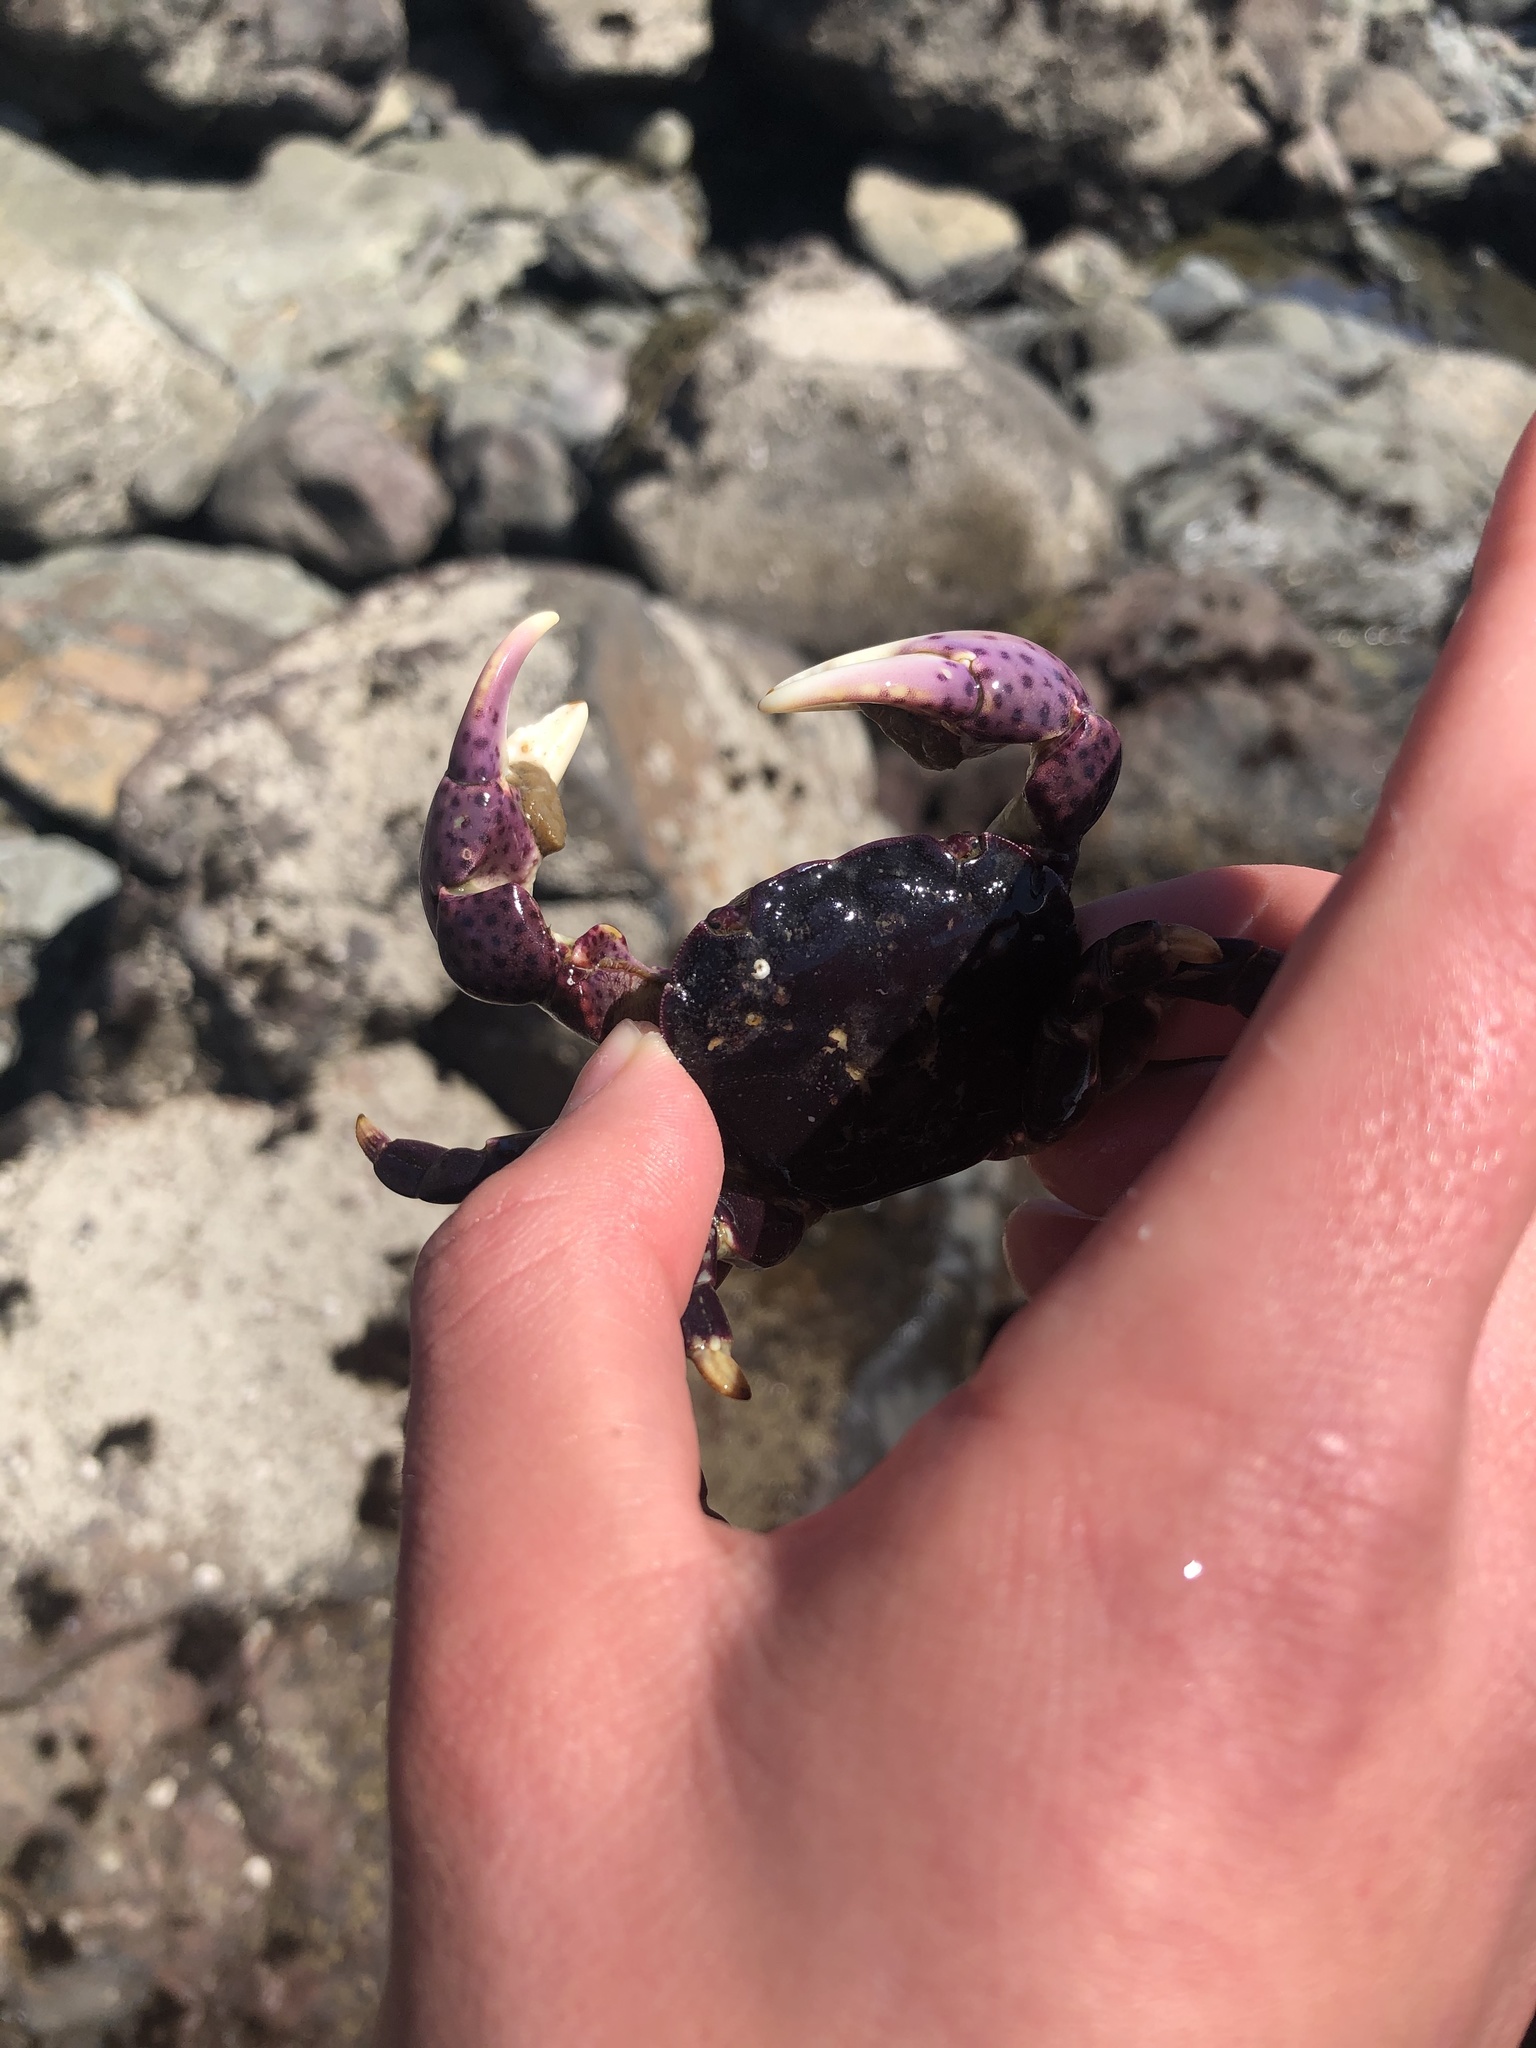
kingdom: Animalia
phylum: Arthropoda
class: Malacostraca
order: Decapoda
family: Varunidae
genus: Hemigrapsus
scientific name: Hemigrapsus nudus
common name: Purple shore crab
